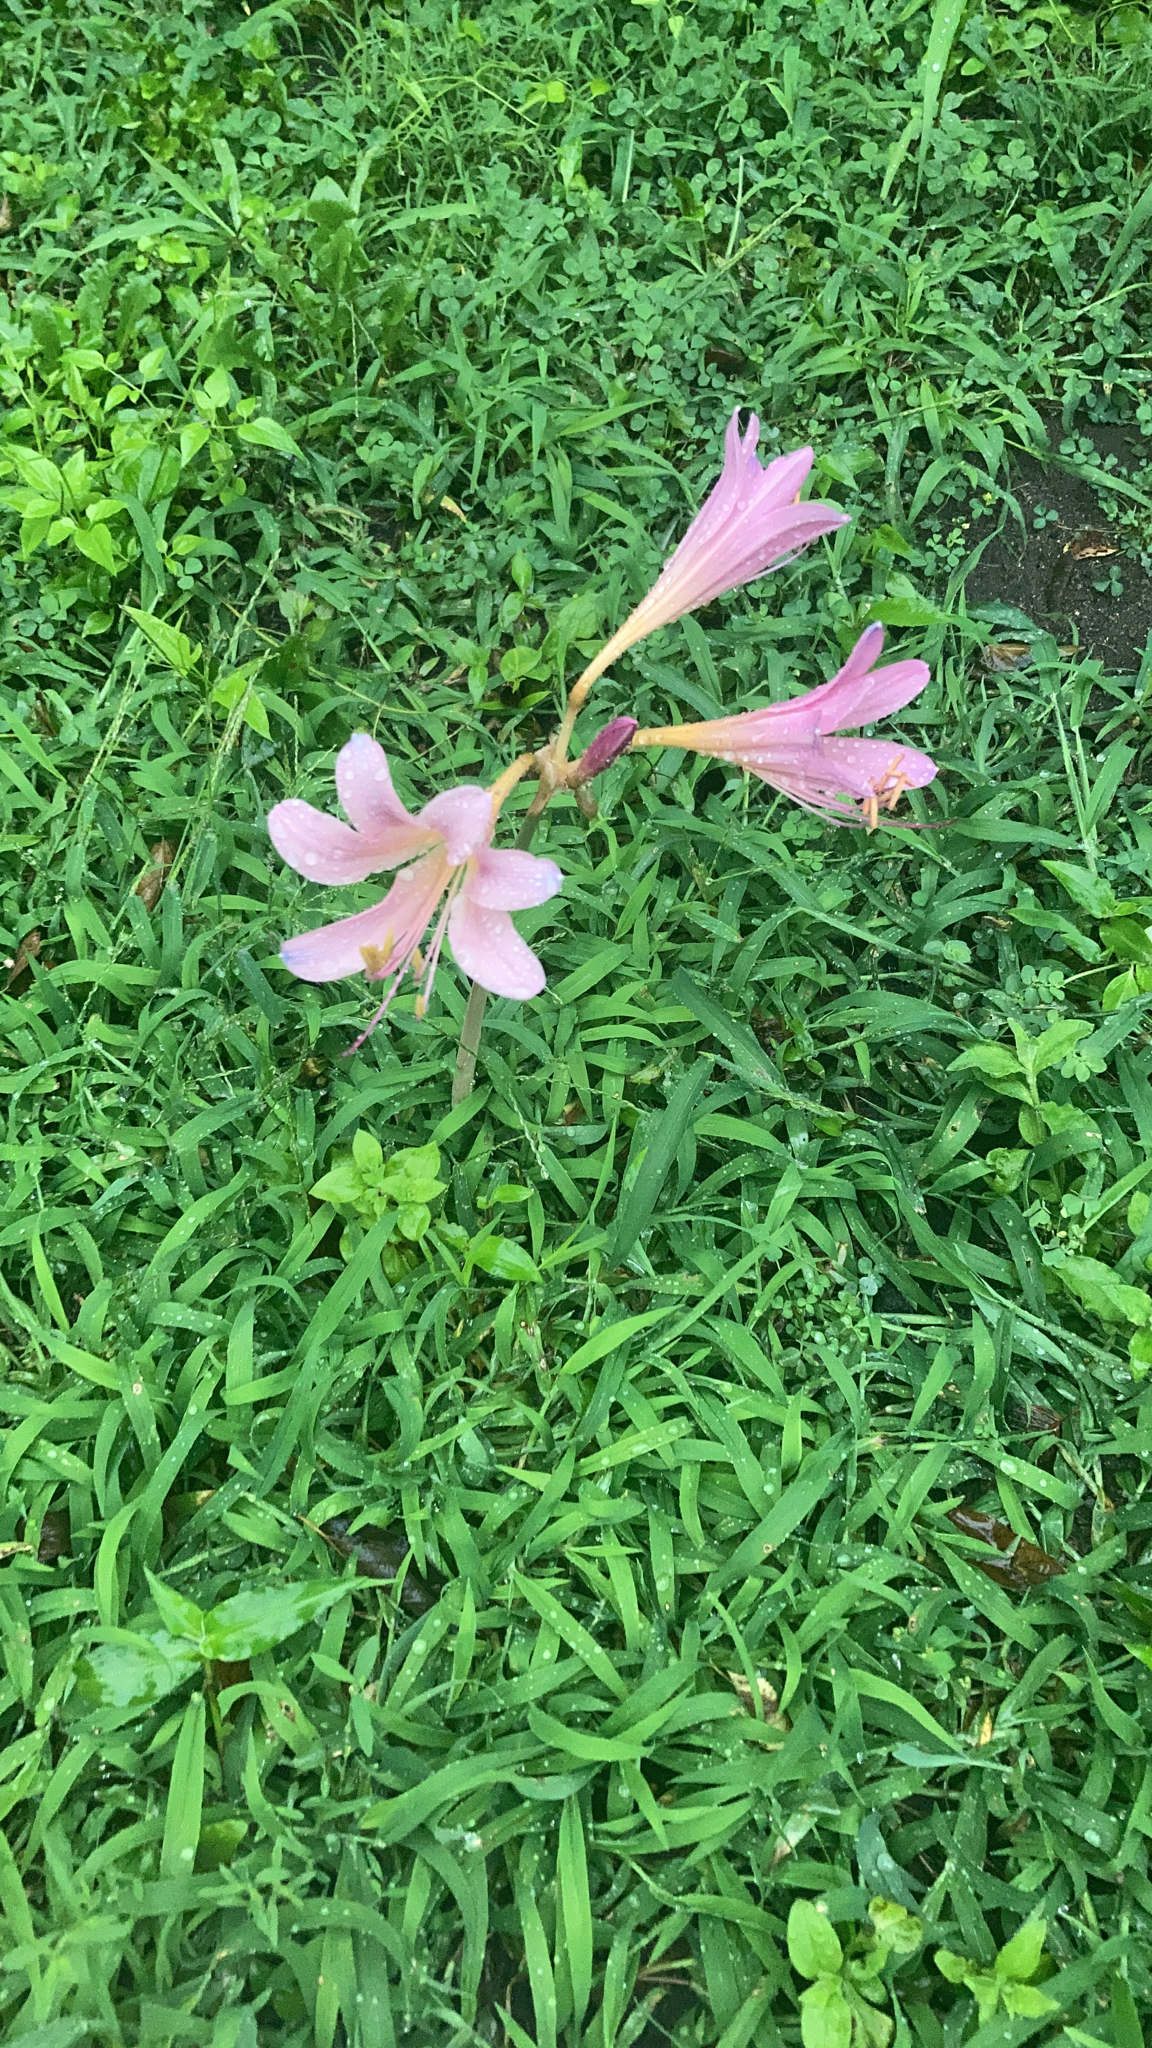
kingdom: Plantae
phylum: Tracheophyta
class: Liliopsida
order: Asparagales
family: Amaryllidaceae
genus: Lycoris
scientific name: Lycoris squamigera
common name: Magic-lily
